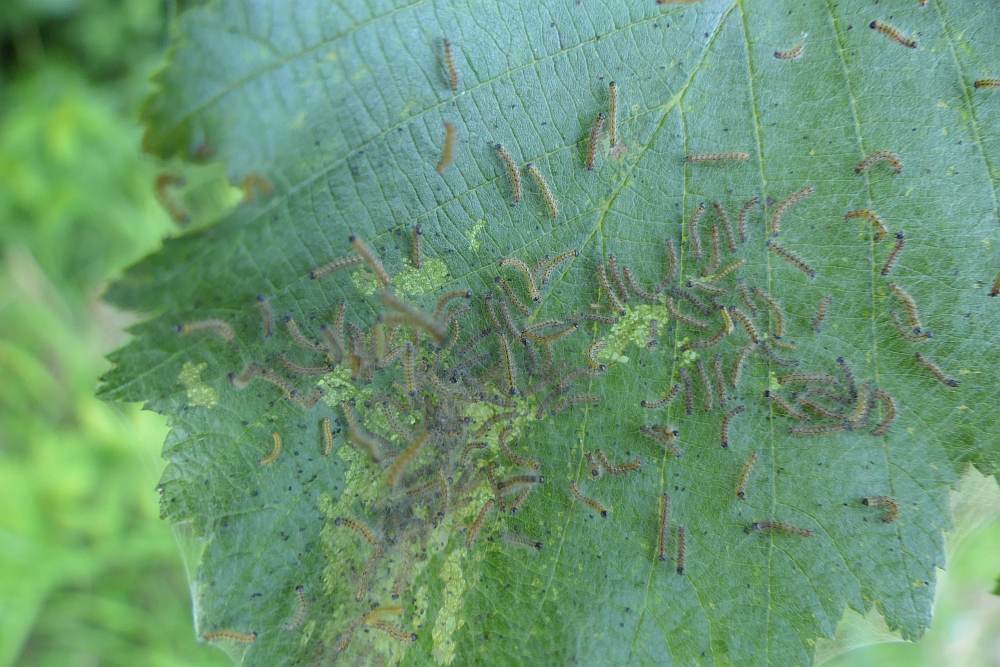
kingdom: Animalia
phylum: Arthropoda
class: Insecta
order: Lepidoptera
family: Erebidae
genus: Hyphantria
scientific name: Hyphantria cunea
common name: American white moth
